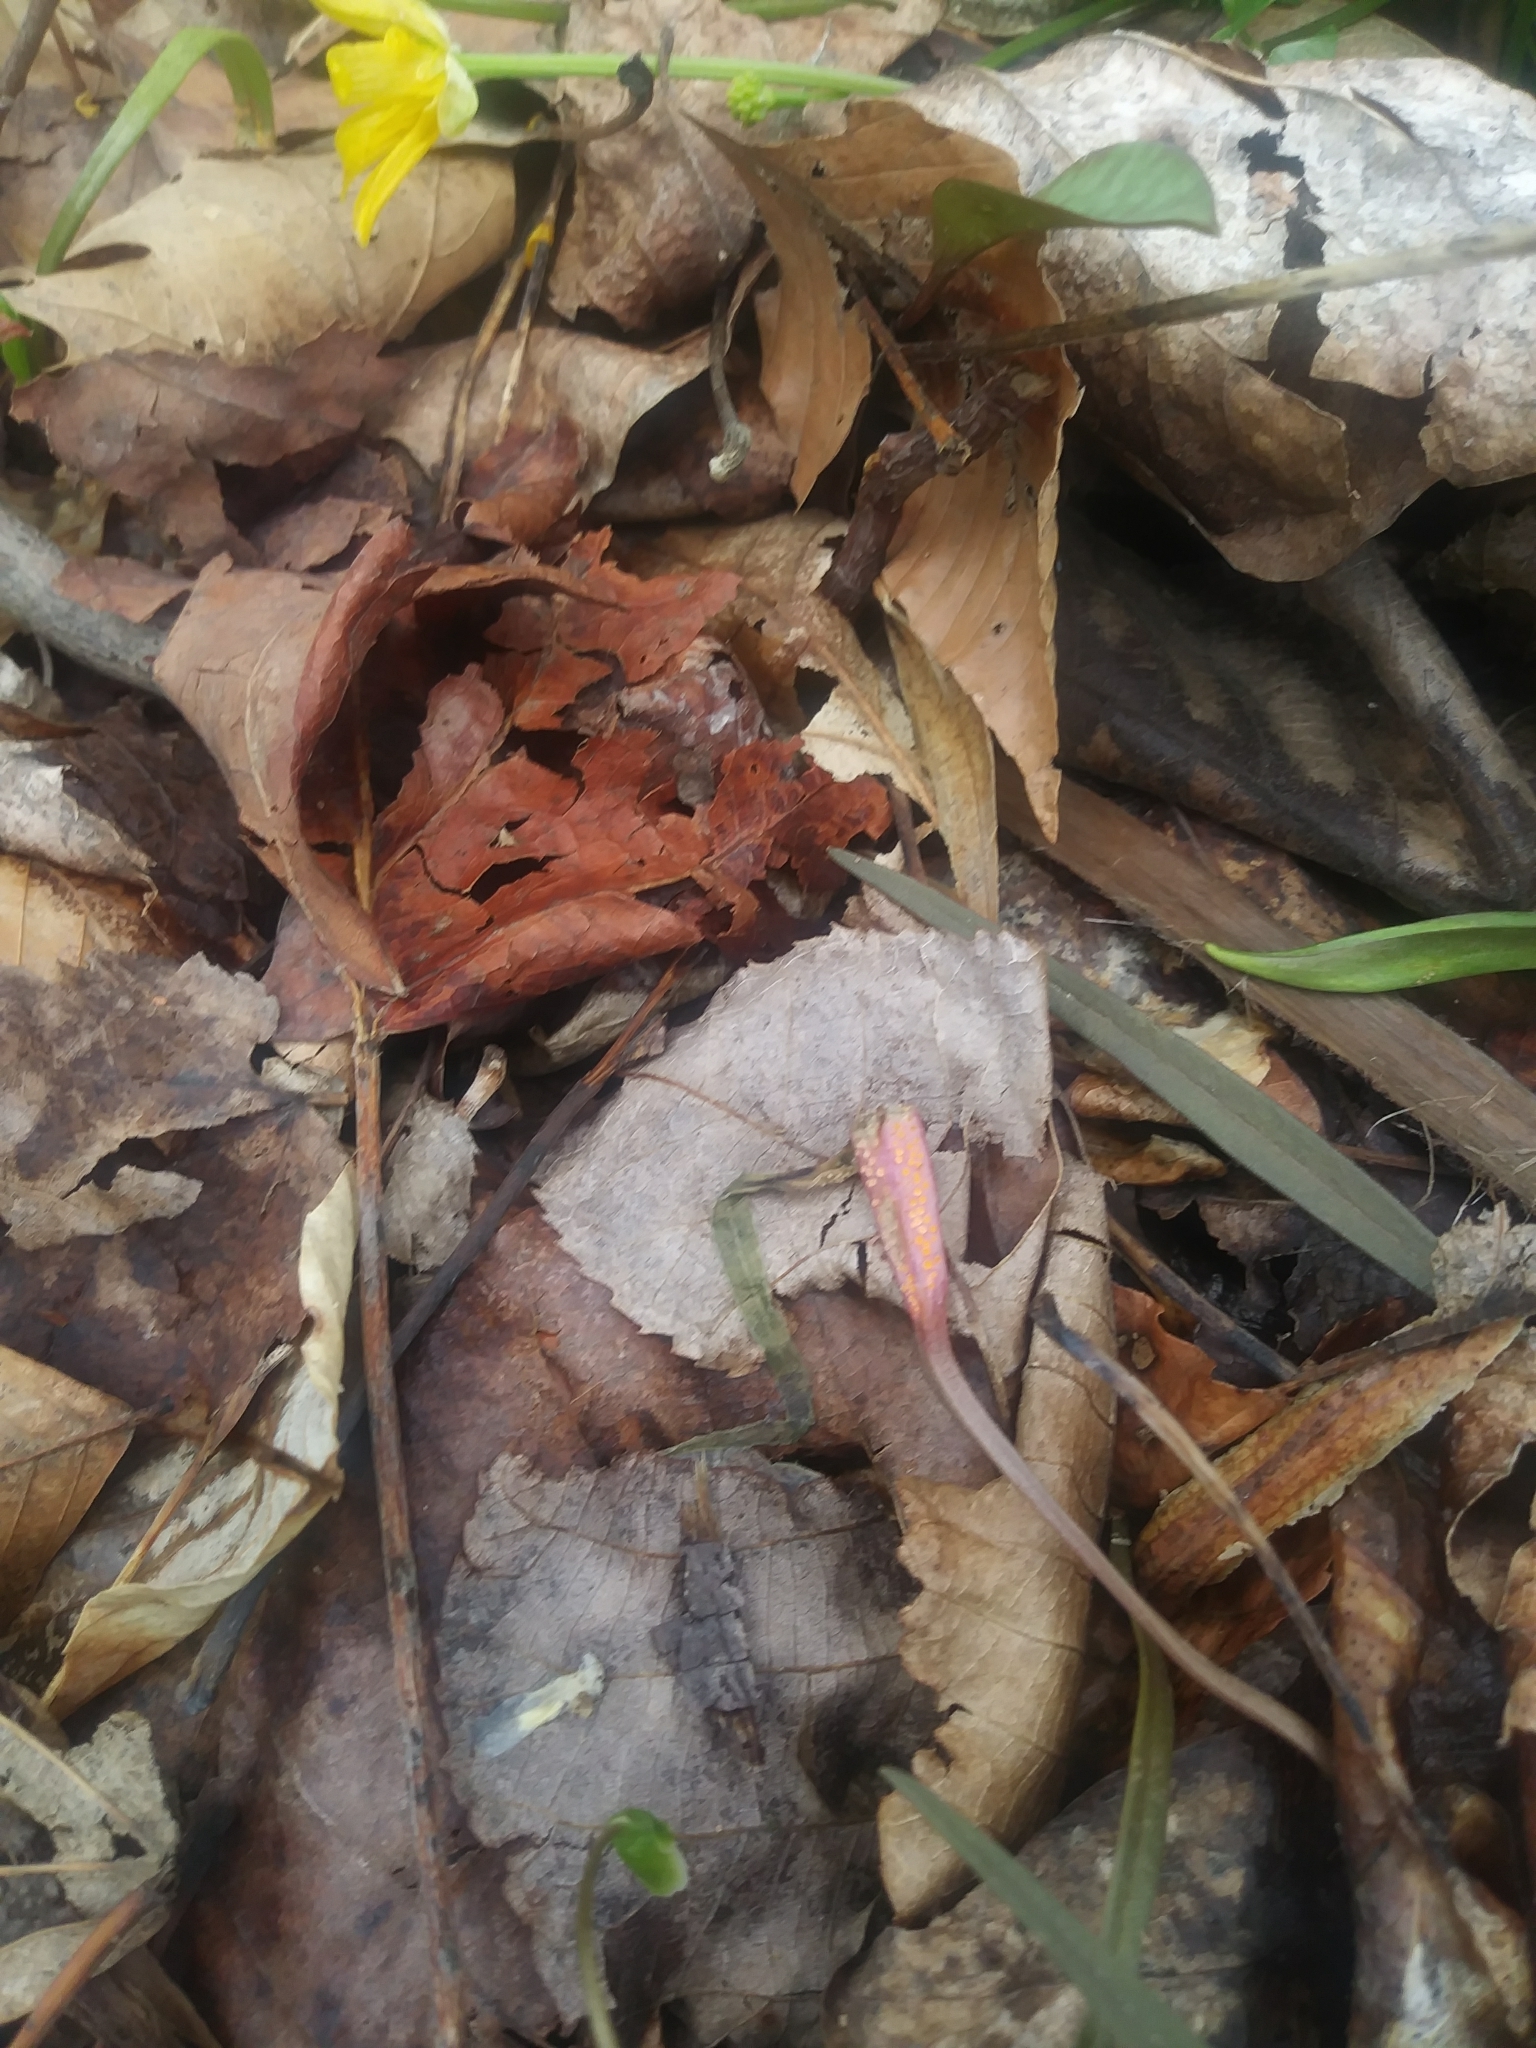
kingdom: Fungi
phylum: Basidiomycota
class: Pucciniomycetes
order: Pucciniales
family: Pucciniaceae
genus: Puccinia
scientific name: Puccinia mariae-wilsoniae
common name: Spring beauty rust
